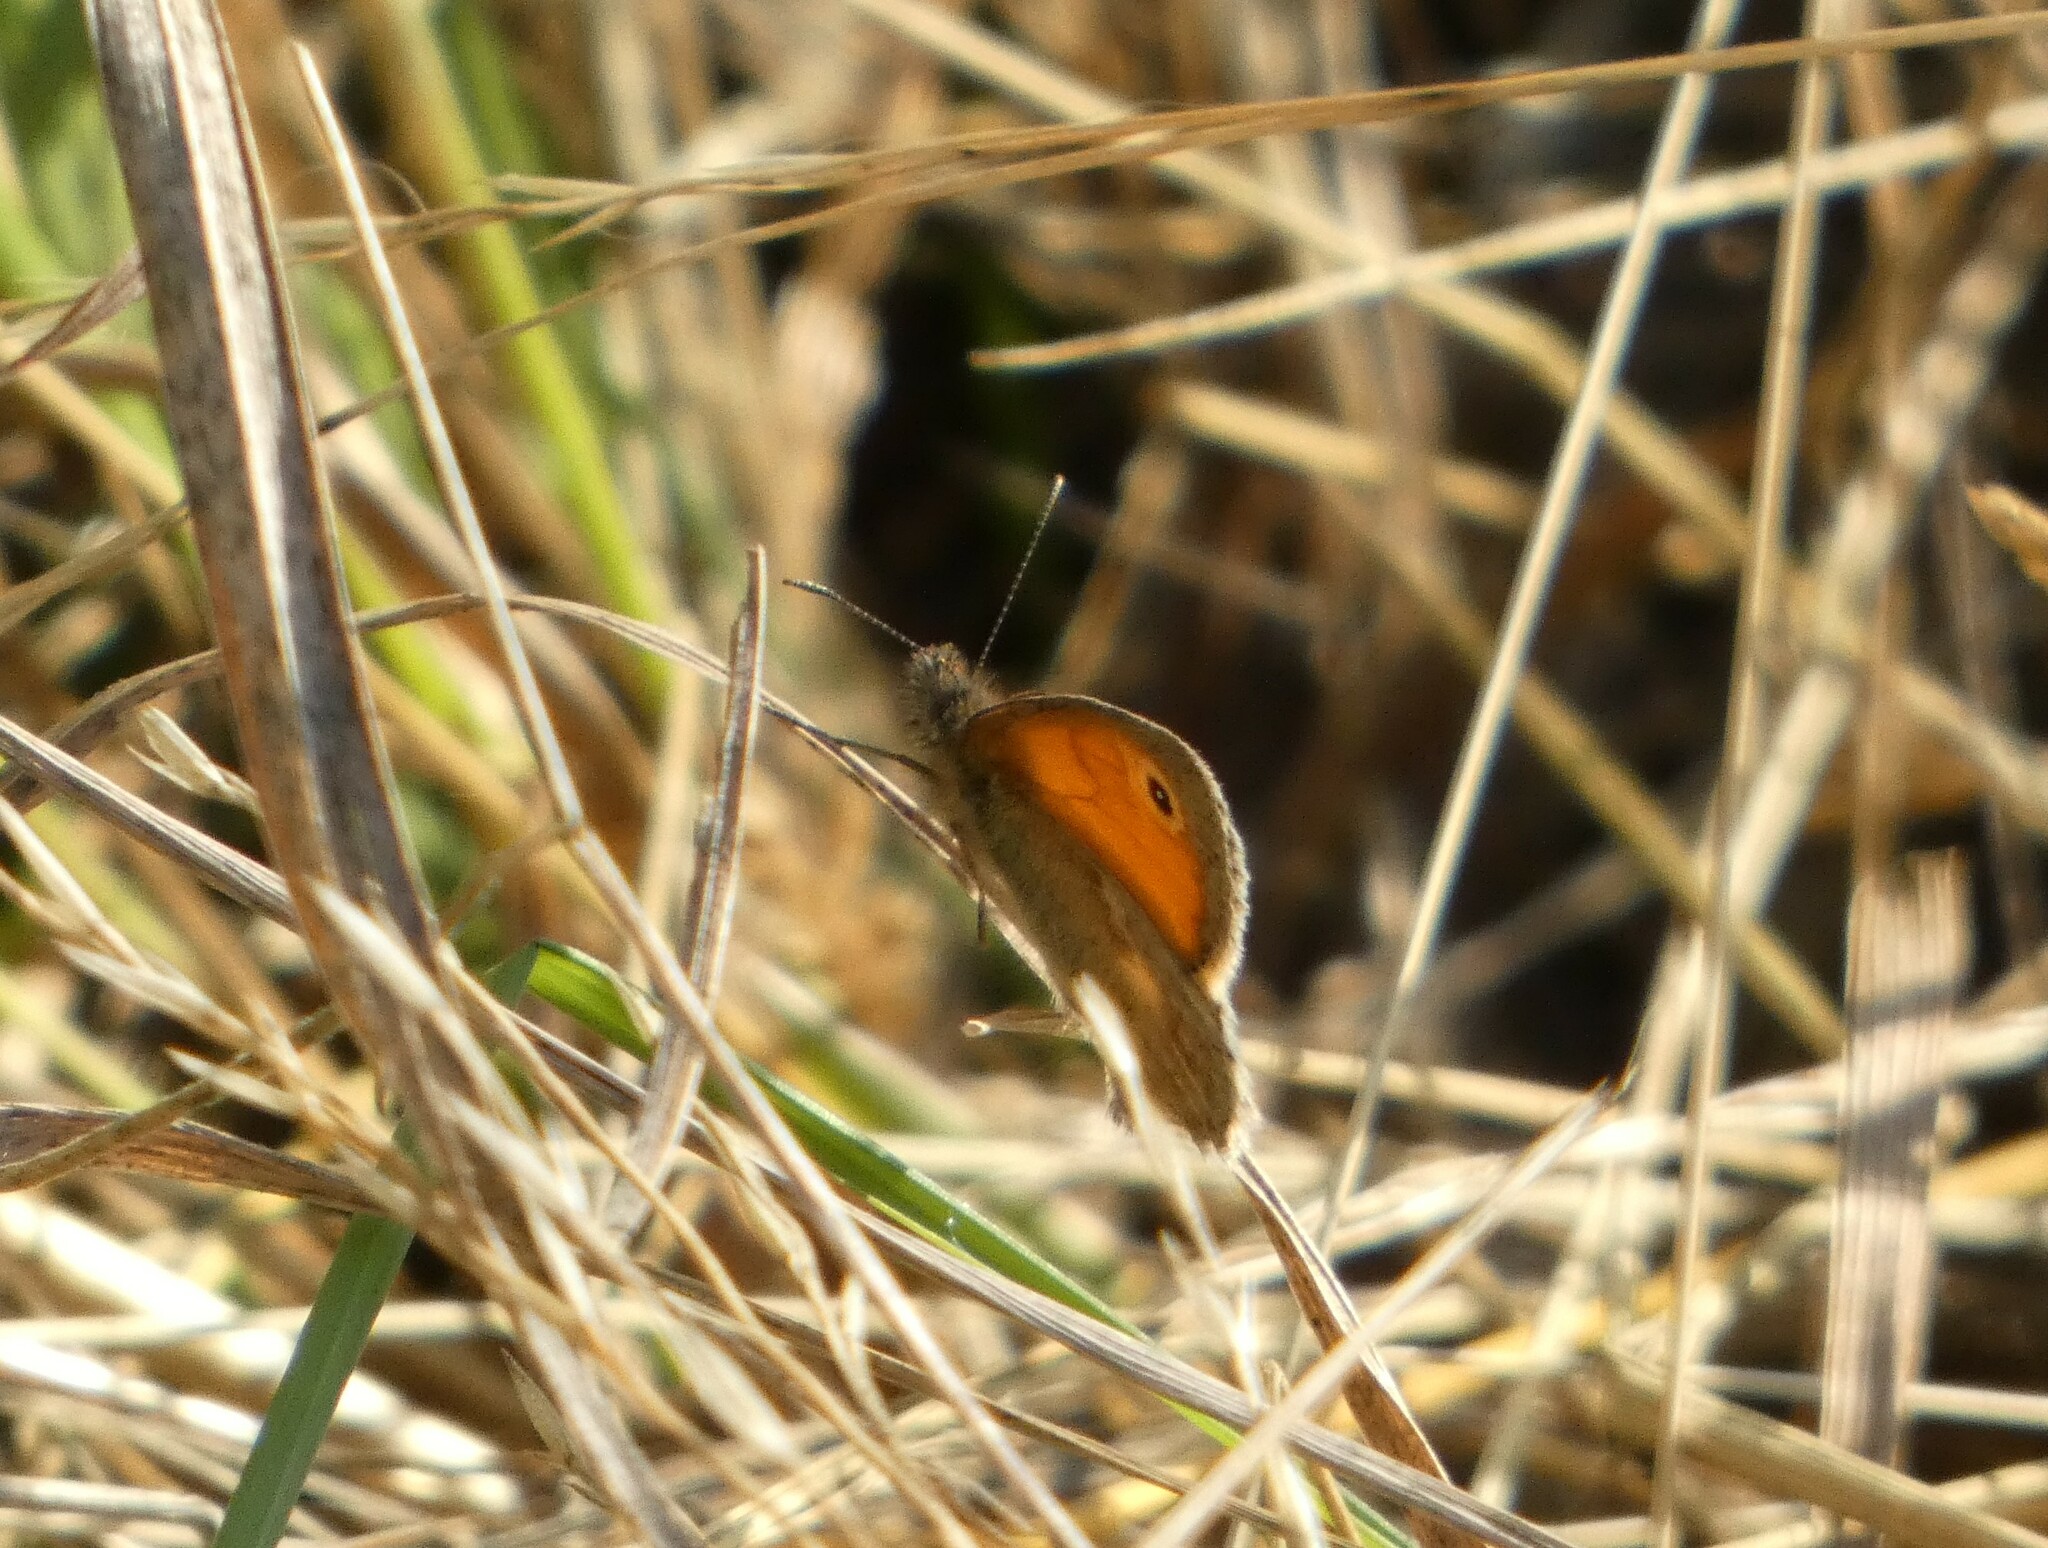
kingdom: Animalia
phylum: Arthropoda
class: Insecta
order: Lepidoptera
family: Nymphalidae
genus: Coenonympha
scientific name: Coenonympha pamphilus
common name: Small heath
